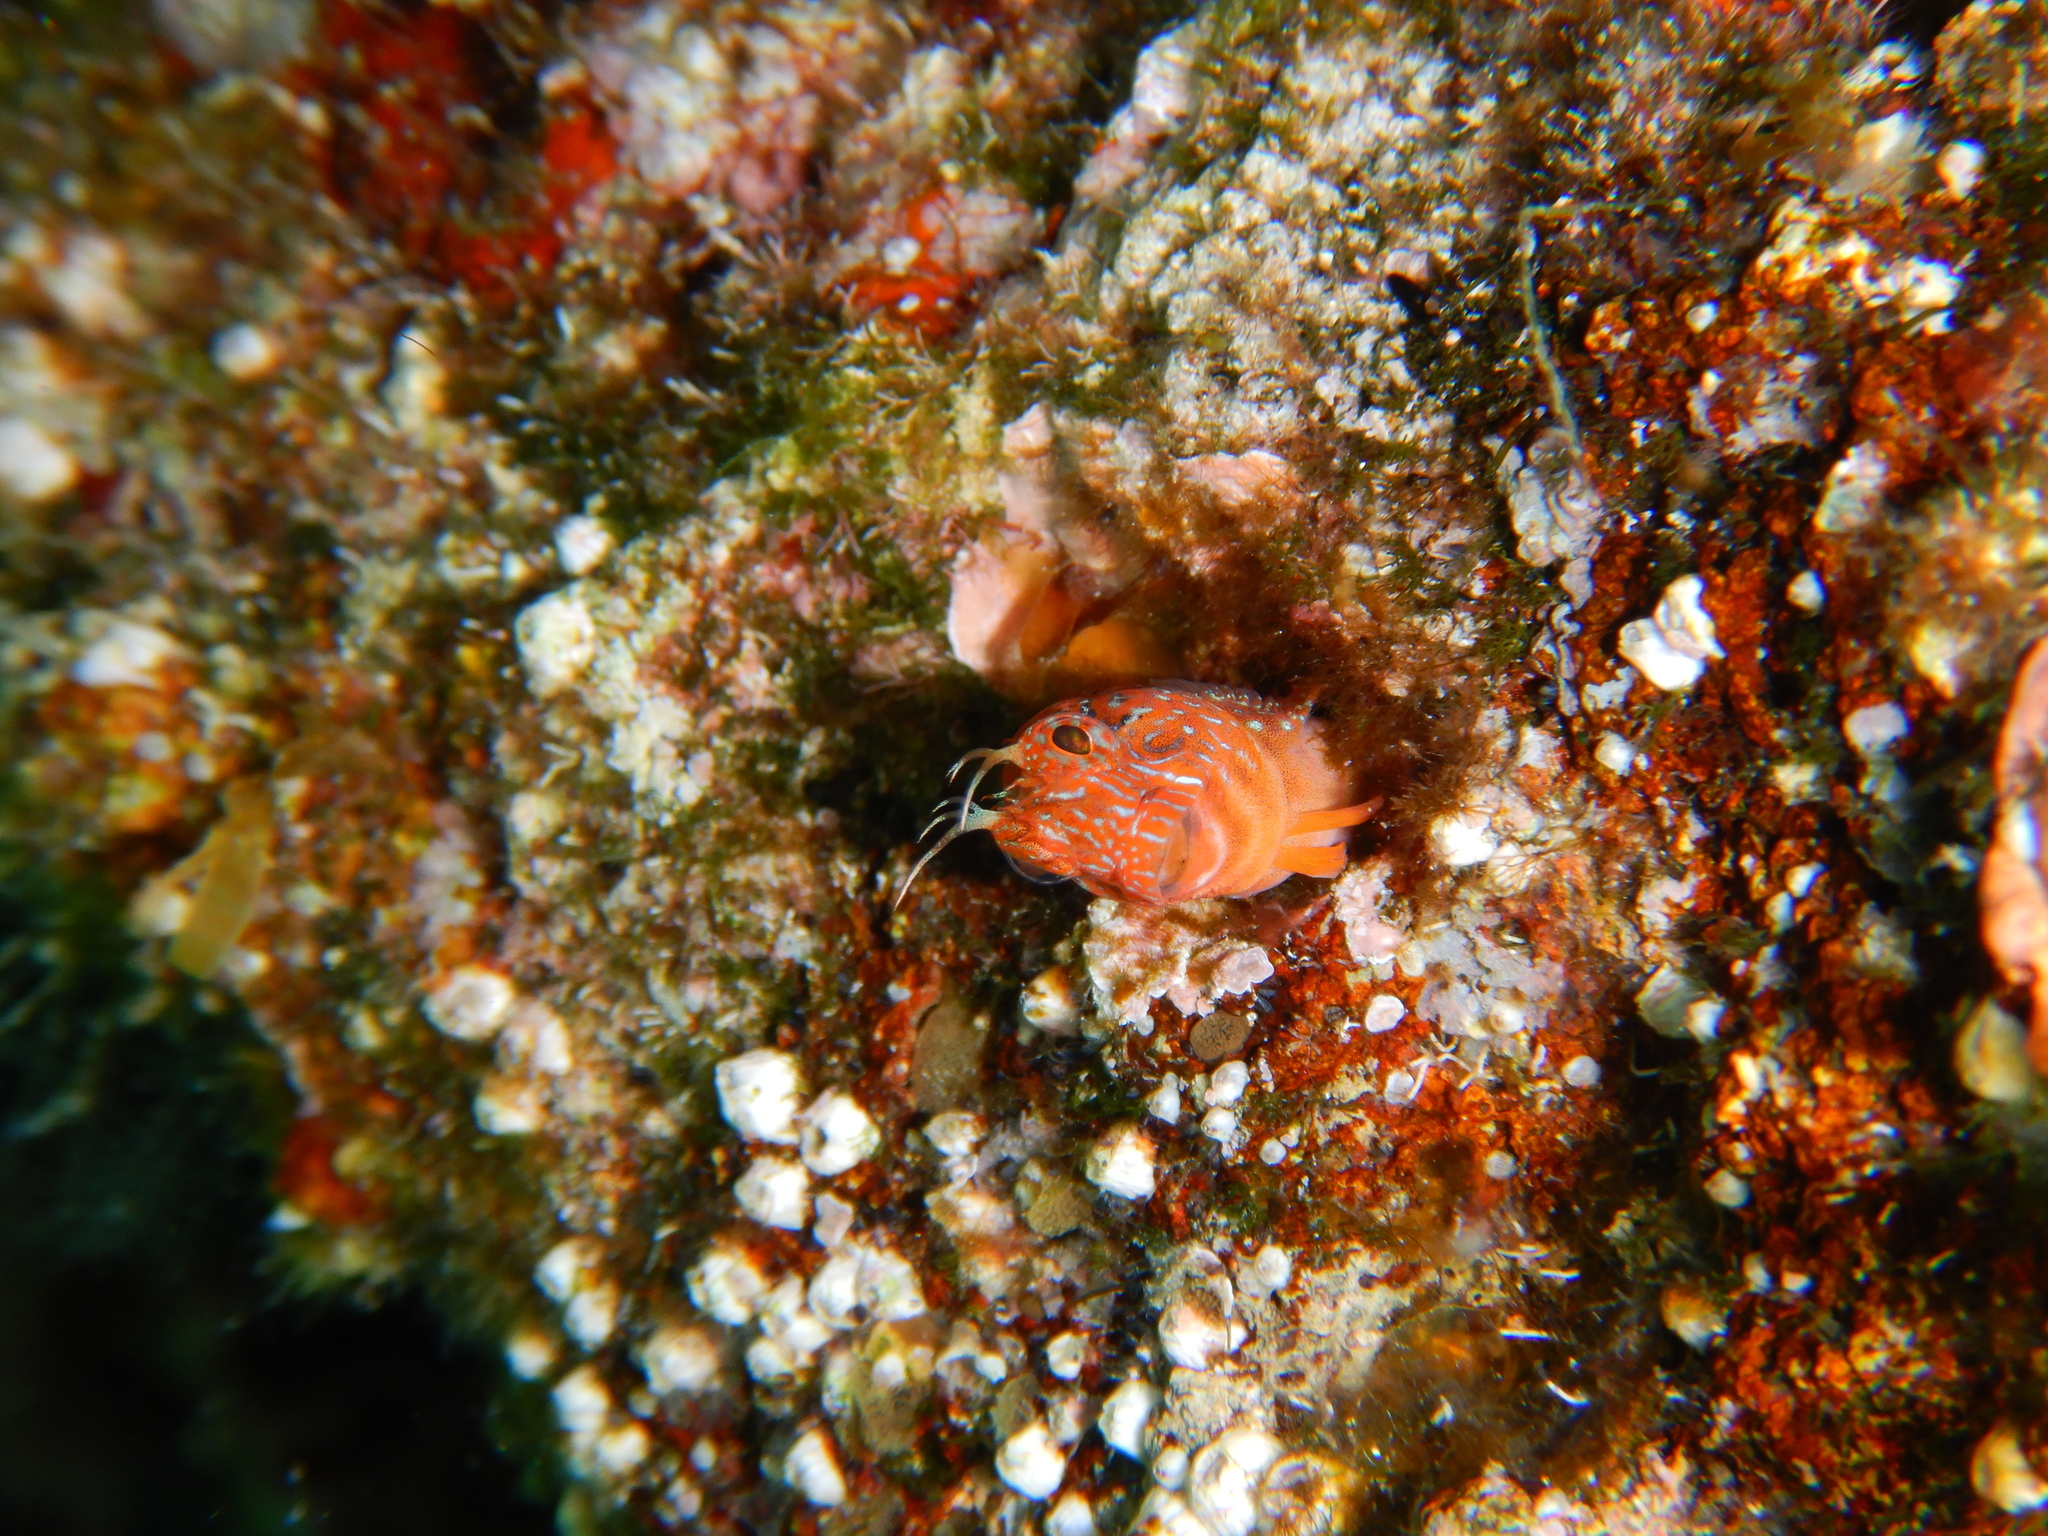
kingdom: Animalia
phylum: Chordata
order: Perciformes
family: Blenniidae
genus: Parablennius
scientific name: Parablennius zvonimiri
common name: Red blenny
